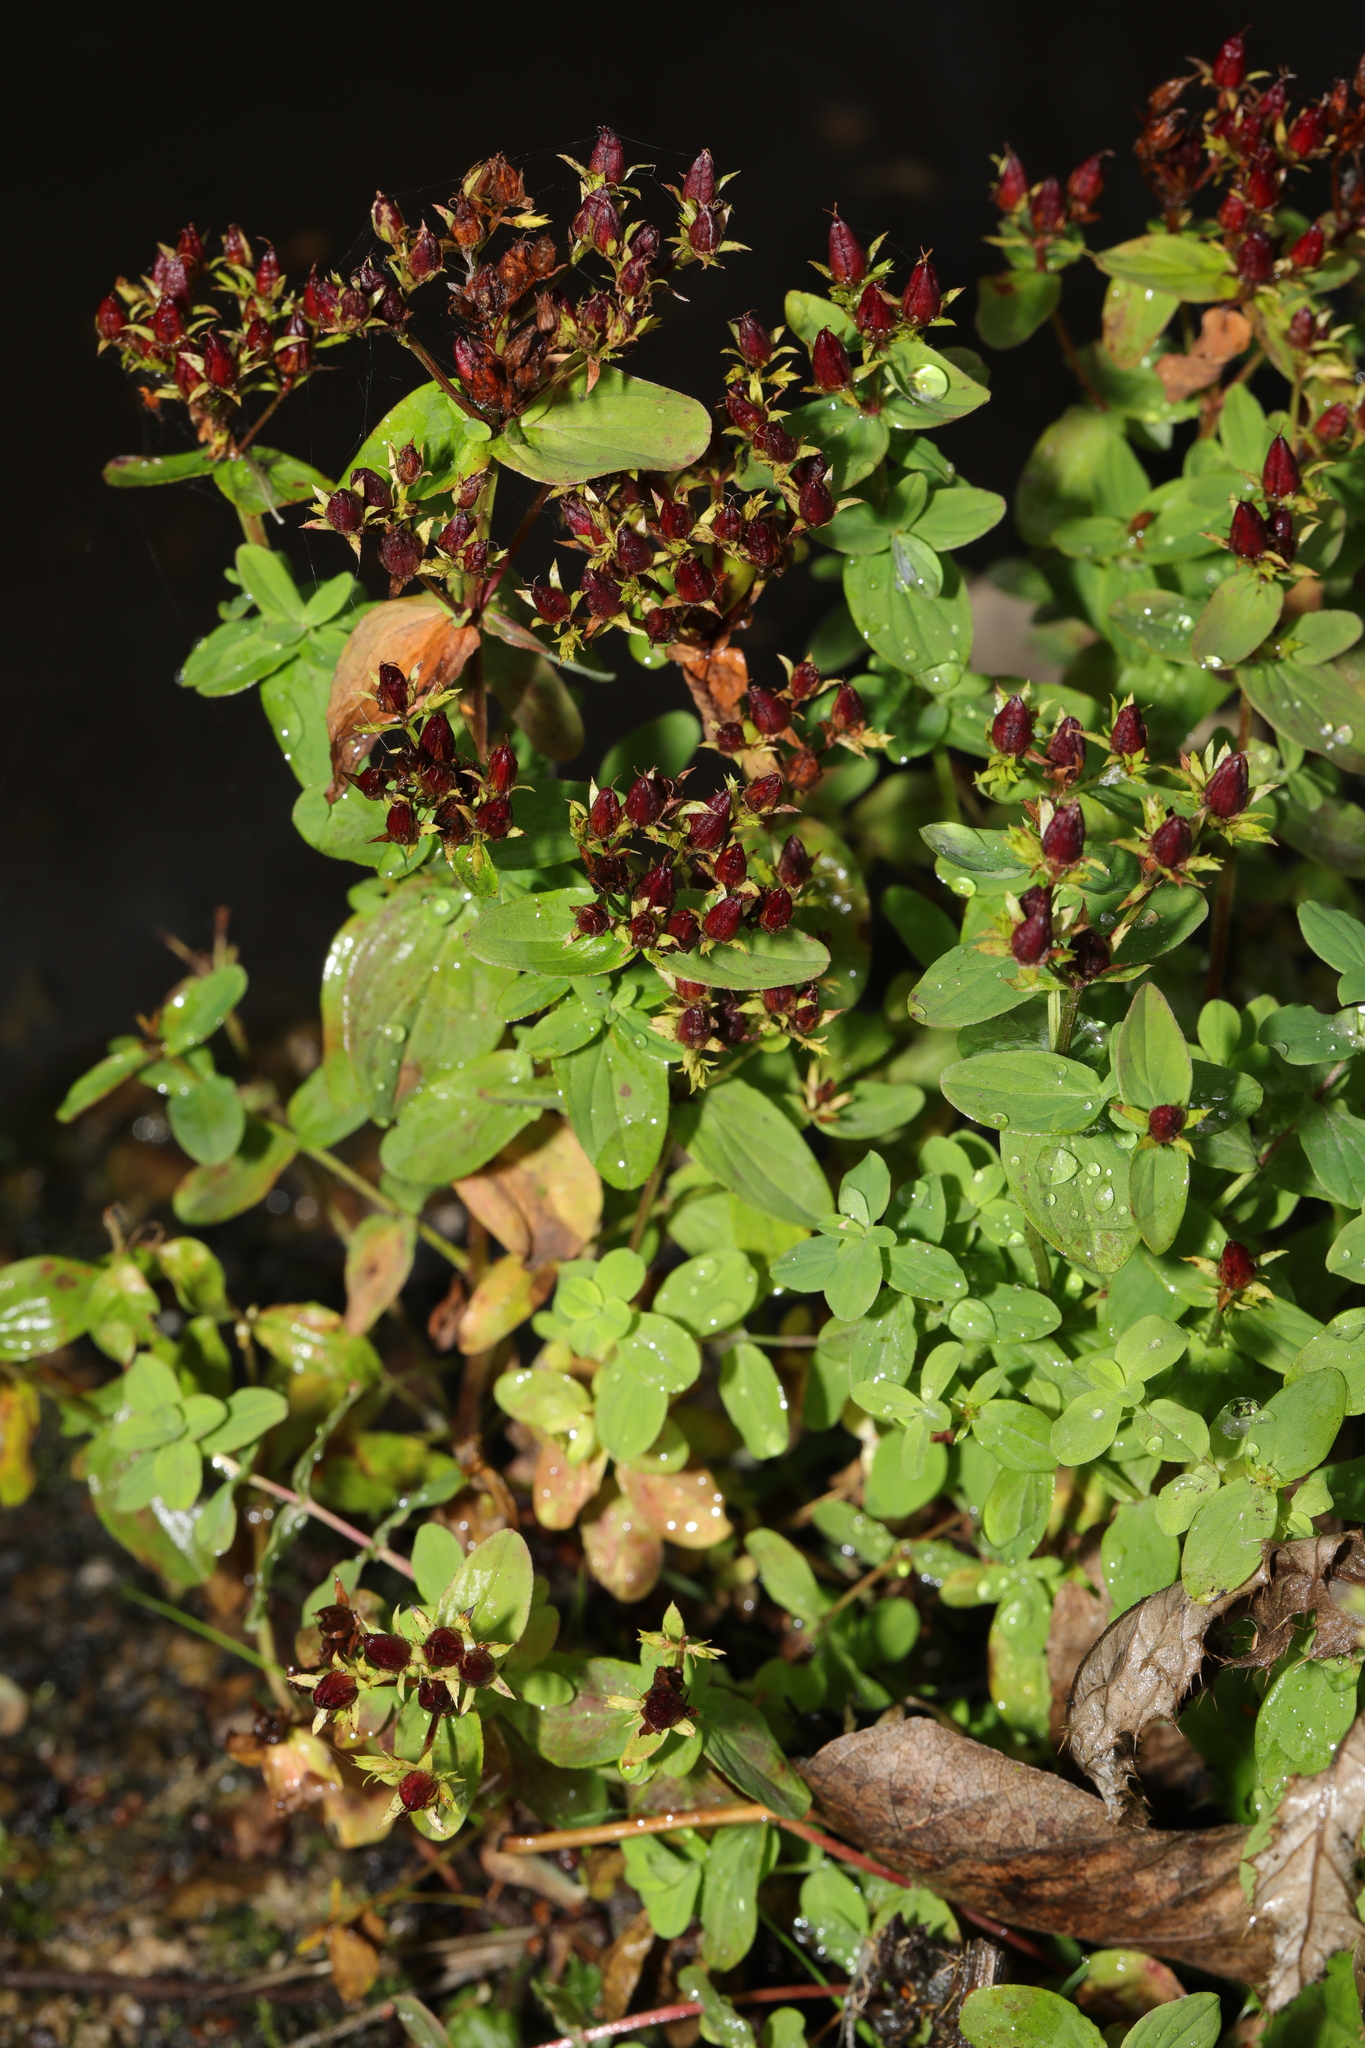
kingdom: Plantae
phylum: Tracheophyta
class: Magnoliopsida
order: Malpighiales
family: Hypericaceae
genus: Hypericum
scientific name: Hypericum tetrapterum
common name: Square-stalked st. john's-wort
